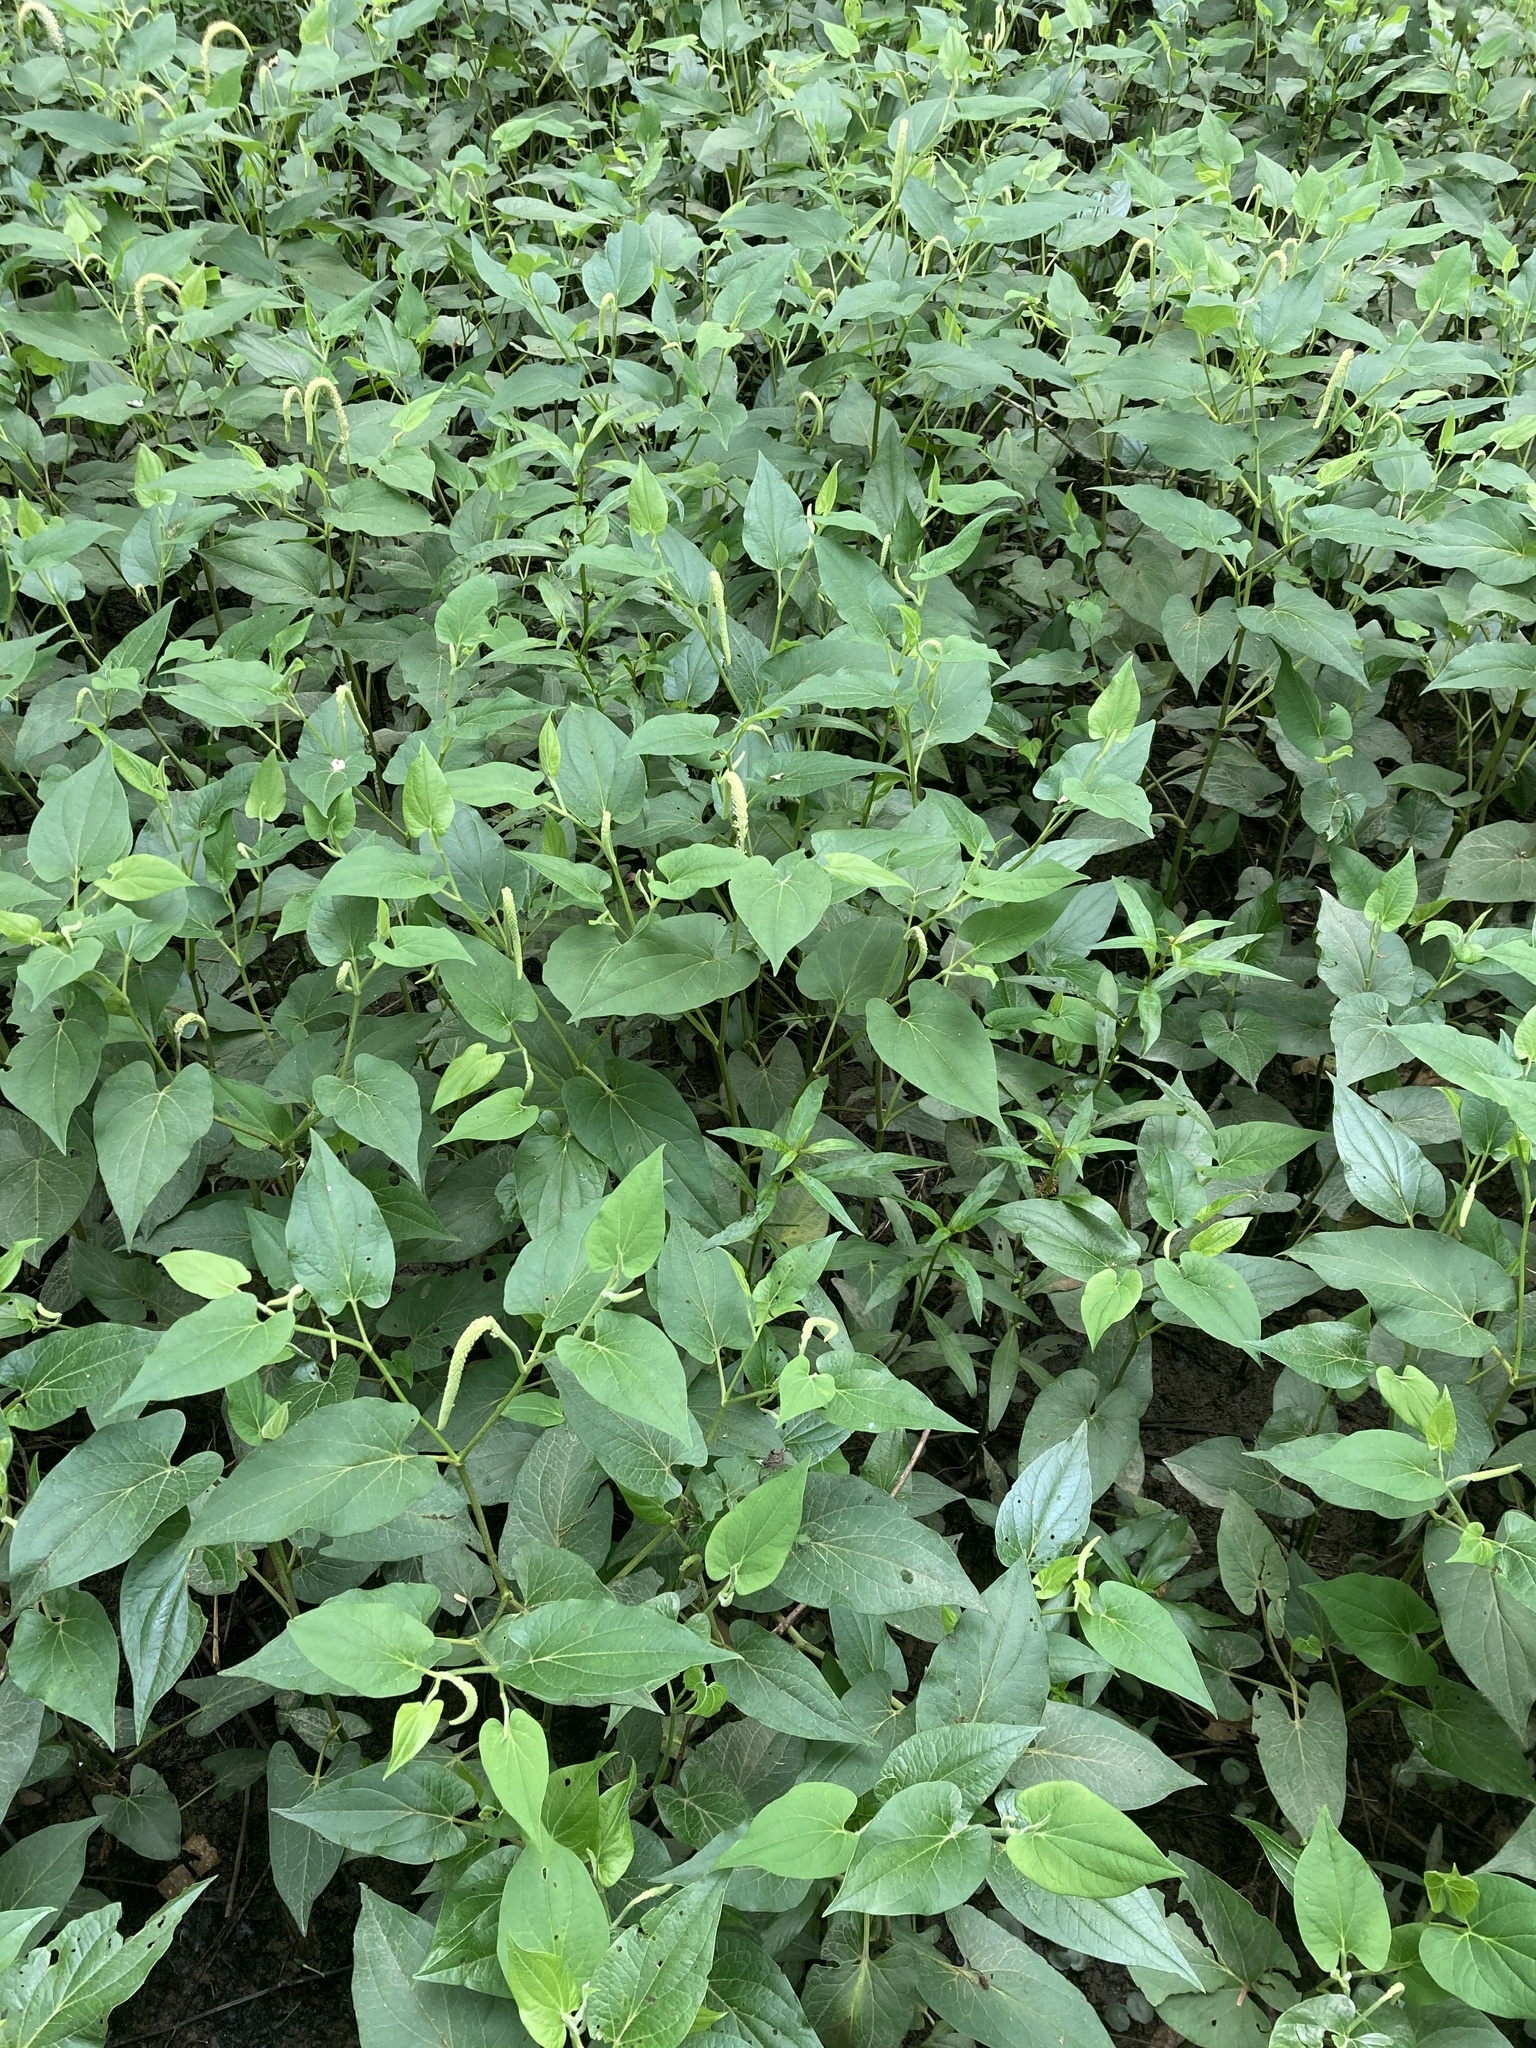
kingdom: Plantae
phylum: Tracheophyta
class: Magnoliopsida
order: Piperales
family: Saururaceae
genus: Saururus
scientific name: Saururus cernuus
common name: Lizard's-tail
